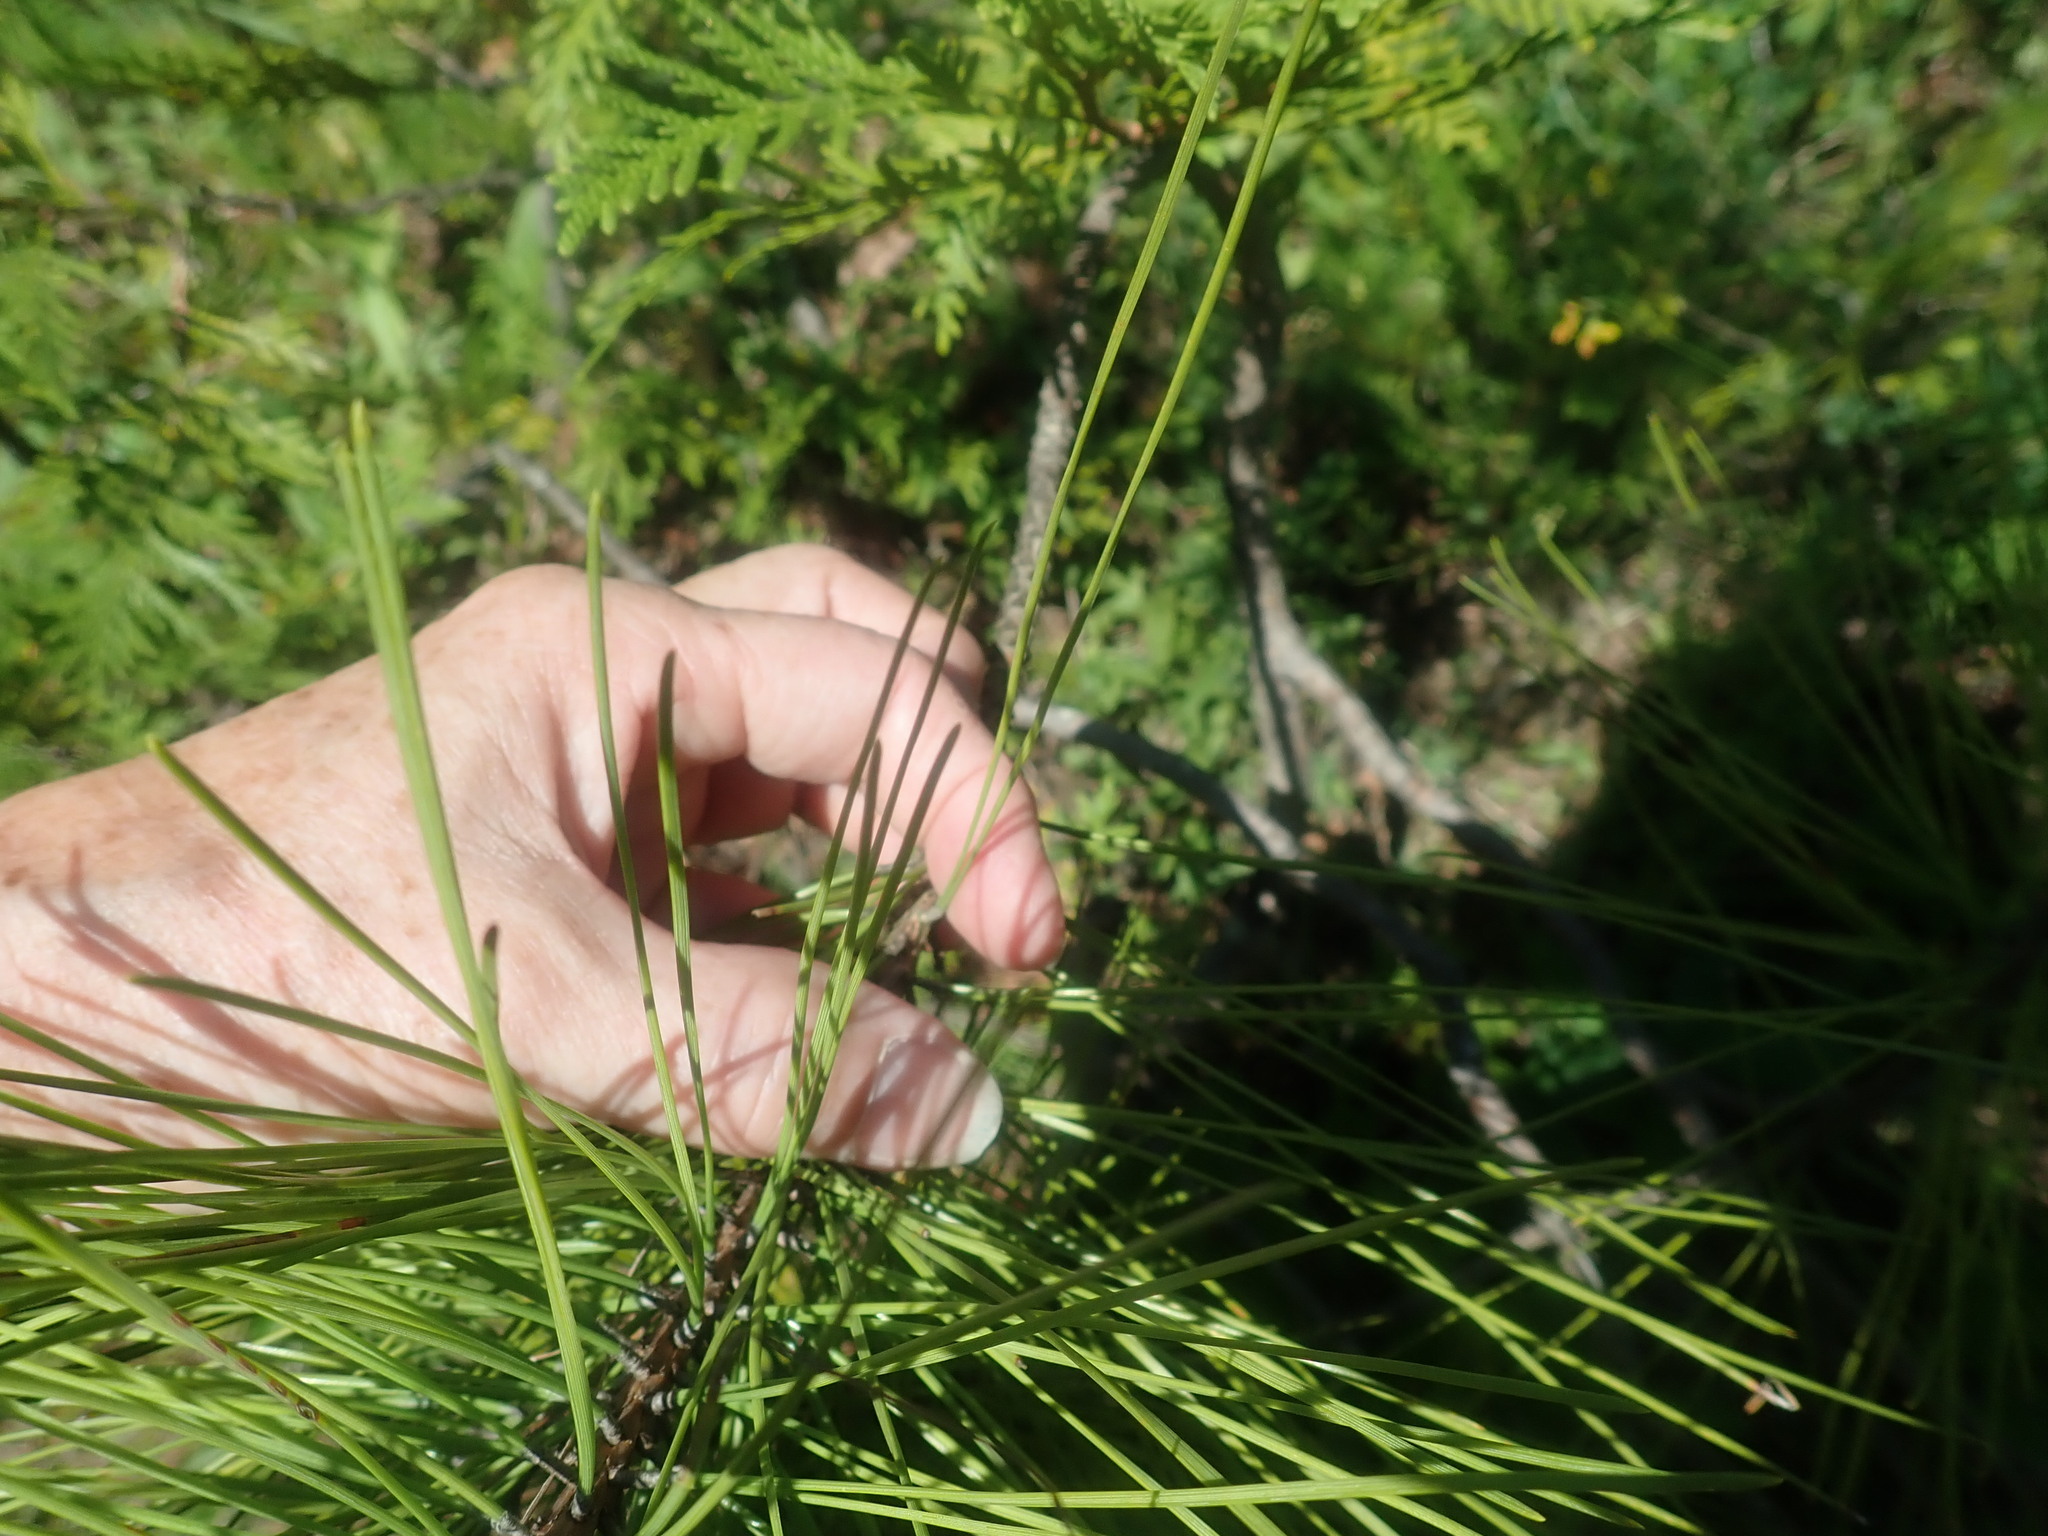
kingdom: Plantae
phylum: Tracheophyta
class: Pinopsida
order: Pinales
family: Pinaceae
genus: Pinus
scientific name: Pinus resinosa
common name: Norway pine
